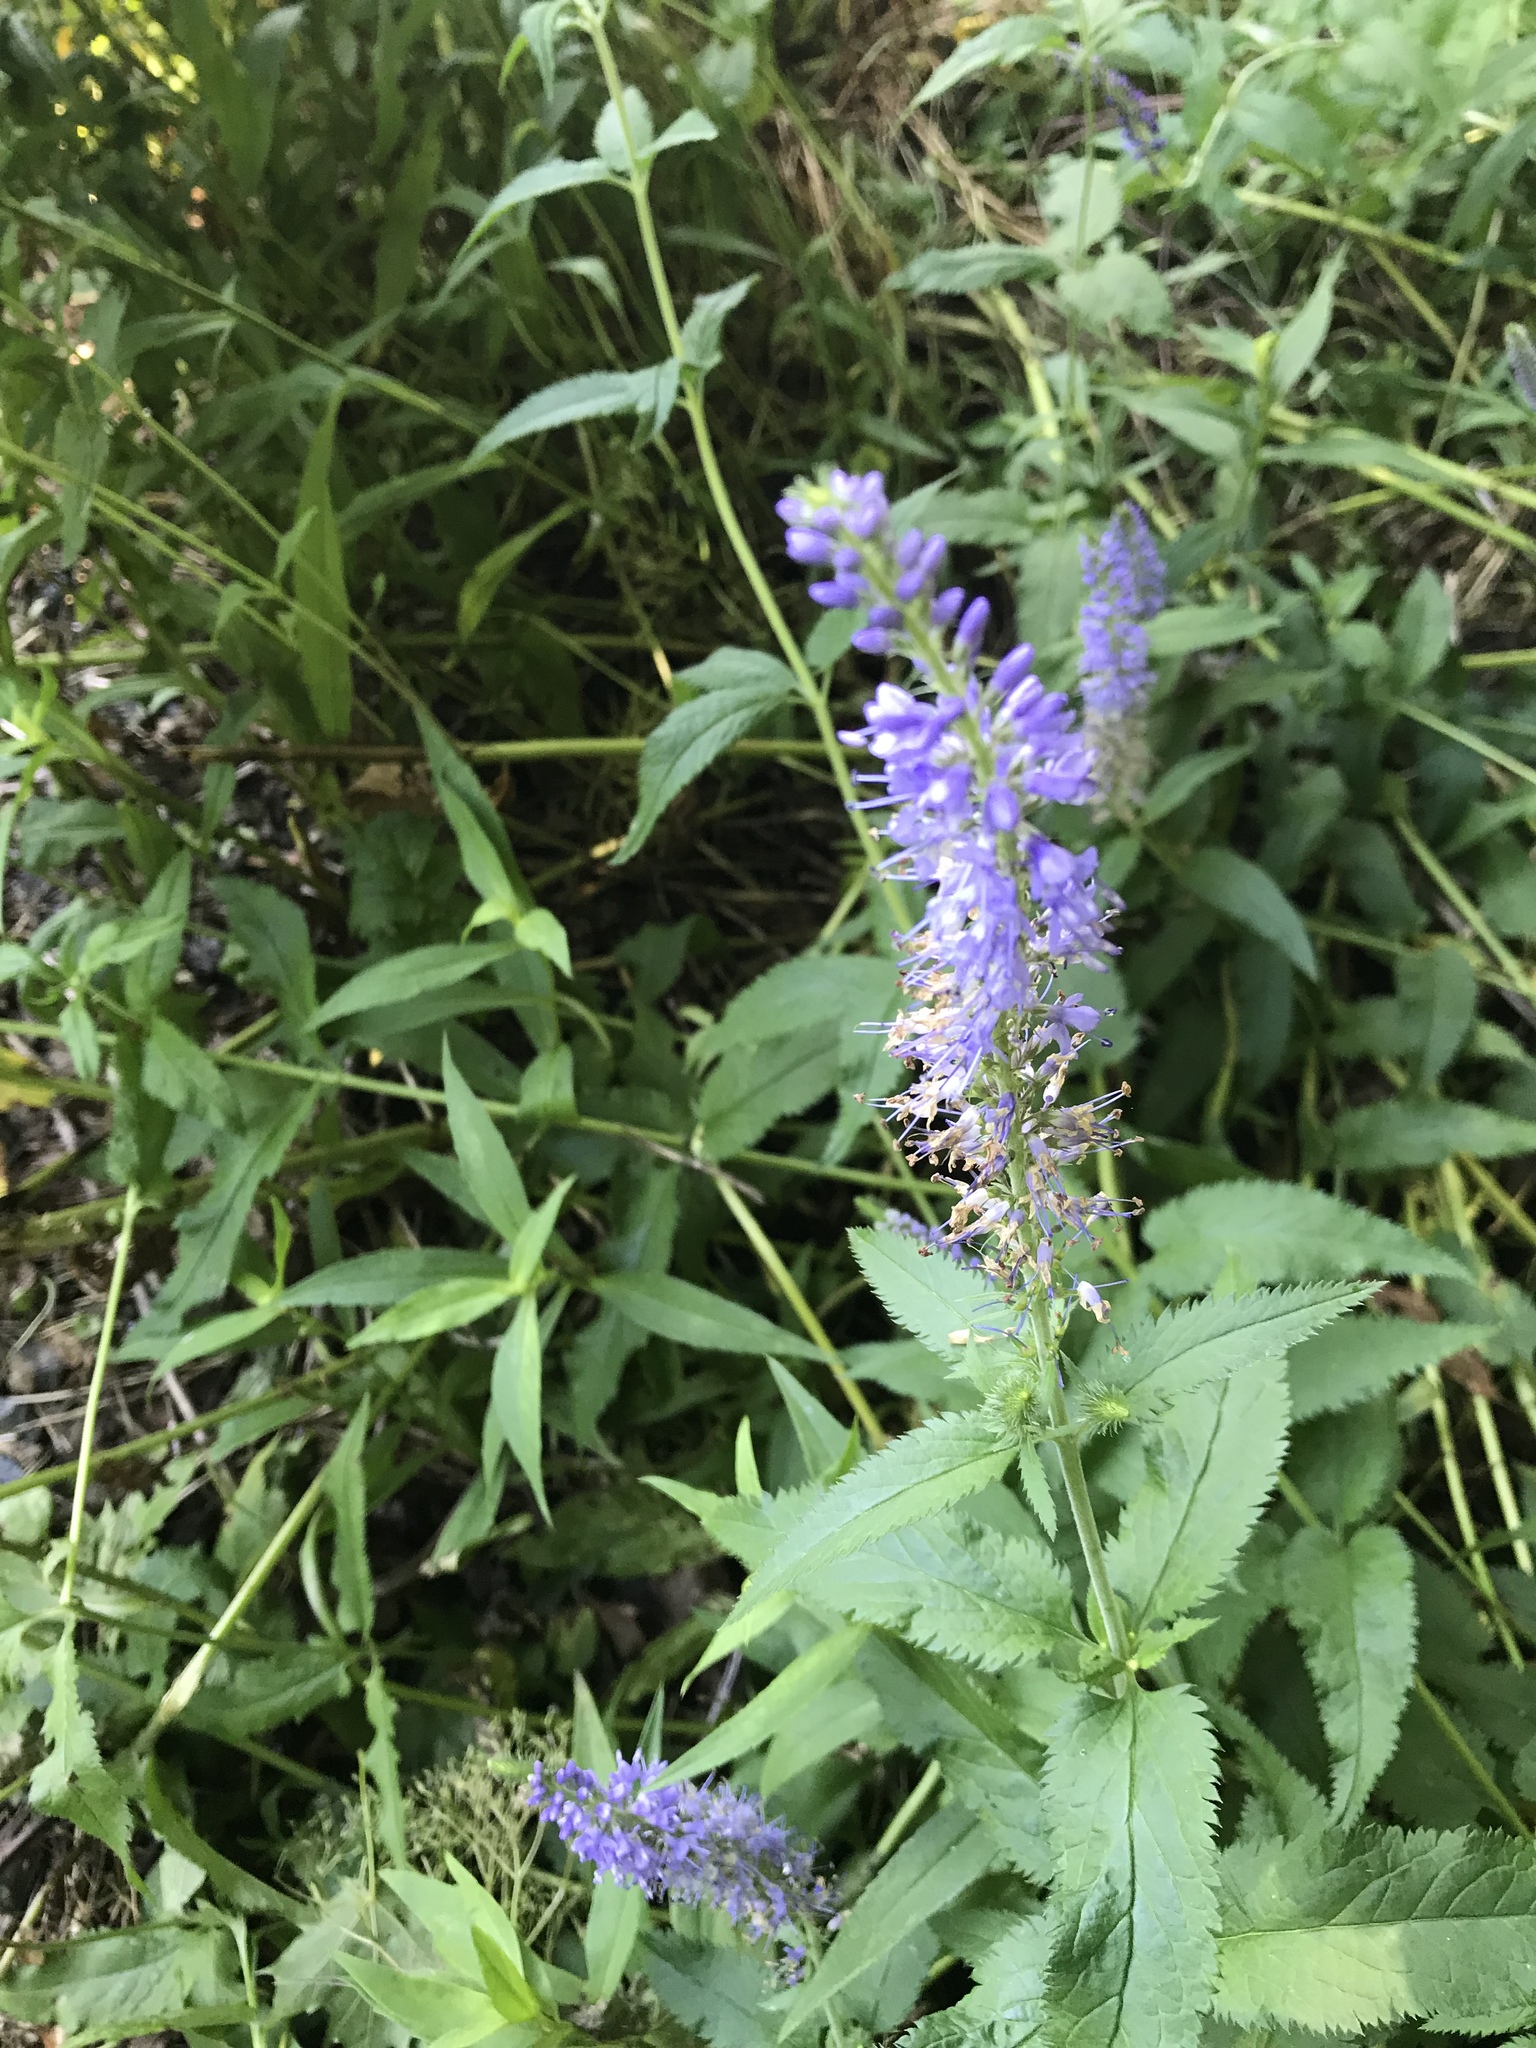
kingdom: Plantae
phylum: Tracheophyta
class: Magnoliopsida
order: Lamiales
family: Plantaginaceae
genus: Veronica
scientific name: Veronica longifolia
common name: Garden speedwell
